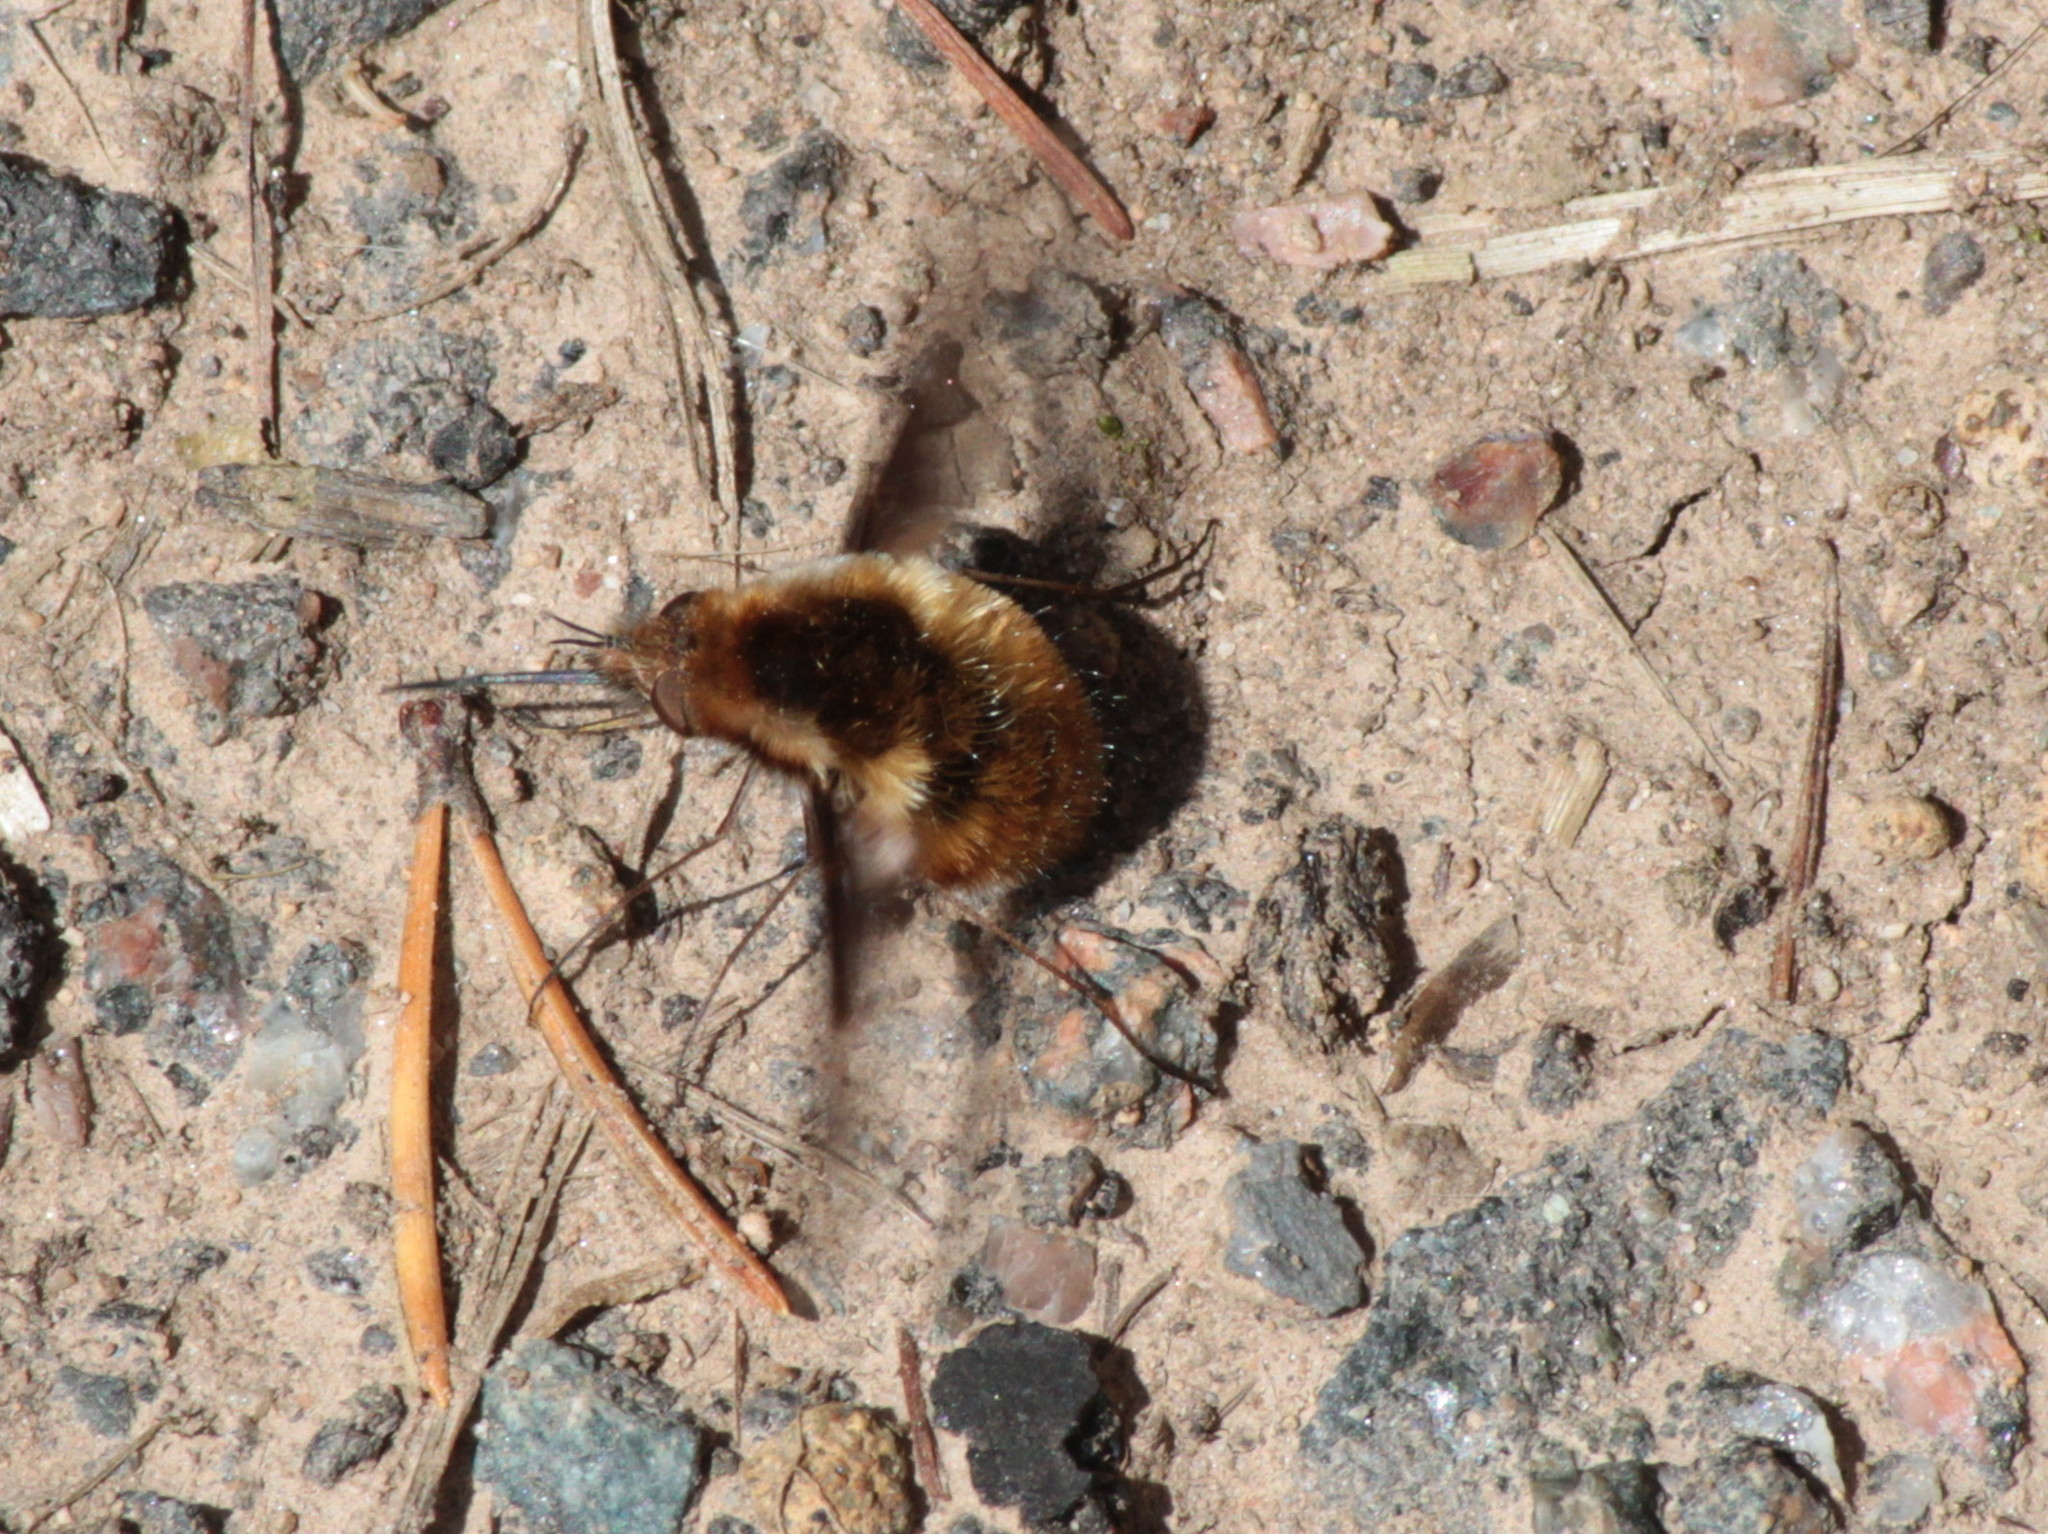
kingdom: Animalia
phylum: Arthropoda
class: Insecta
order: Diptera
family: Bombyliidae
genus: Bombylius
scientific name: Bombylius major
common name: Bee fly
